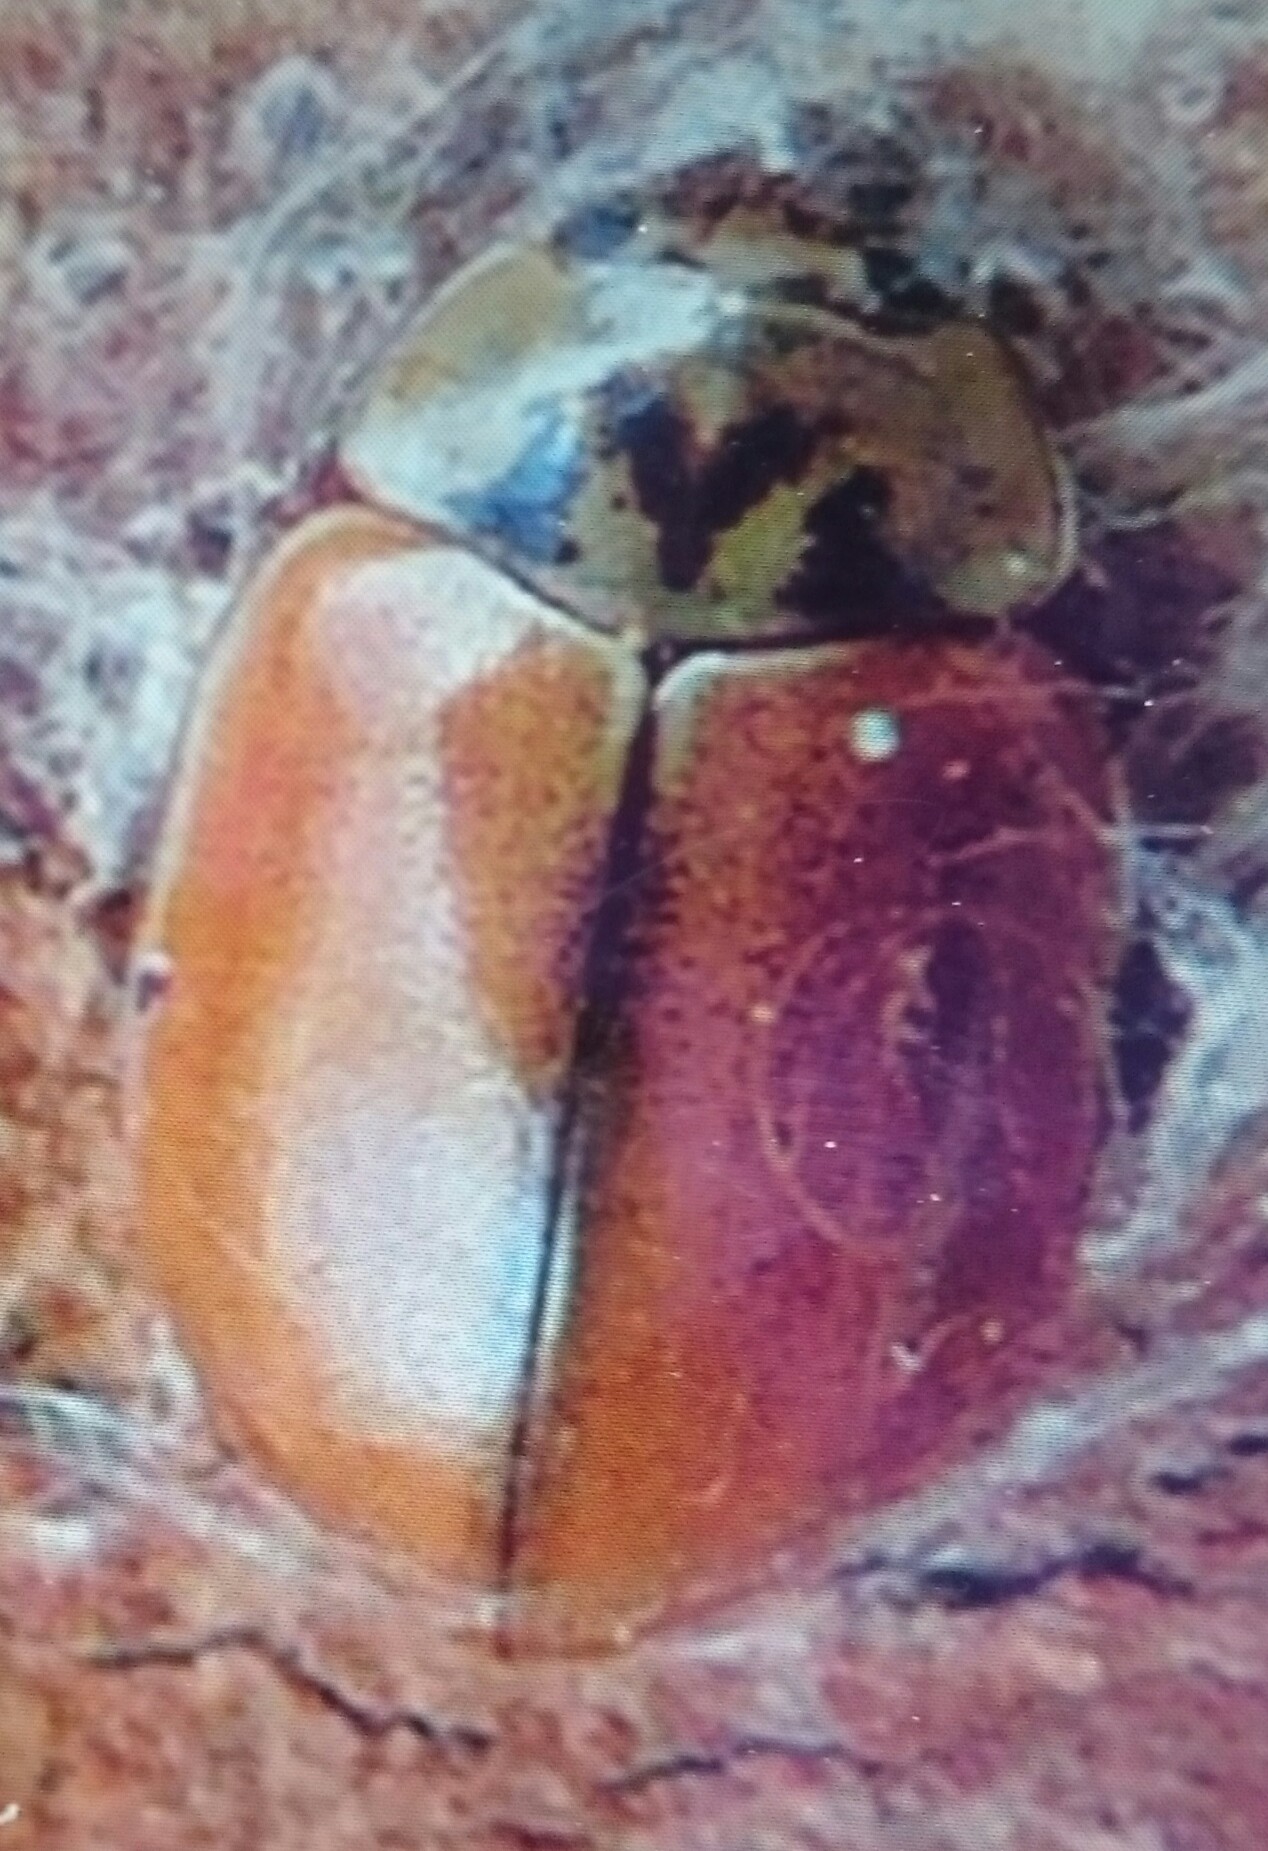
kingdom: Animalia
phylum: Arthropoda
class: Insecta
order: Coleoptera
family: Coccinellidae
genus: Aphidecta
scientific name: Aphidecta obliterata
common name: Larch ladybird
